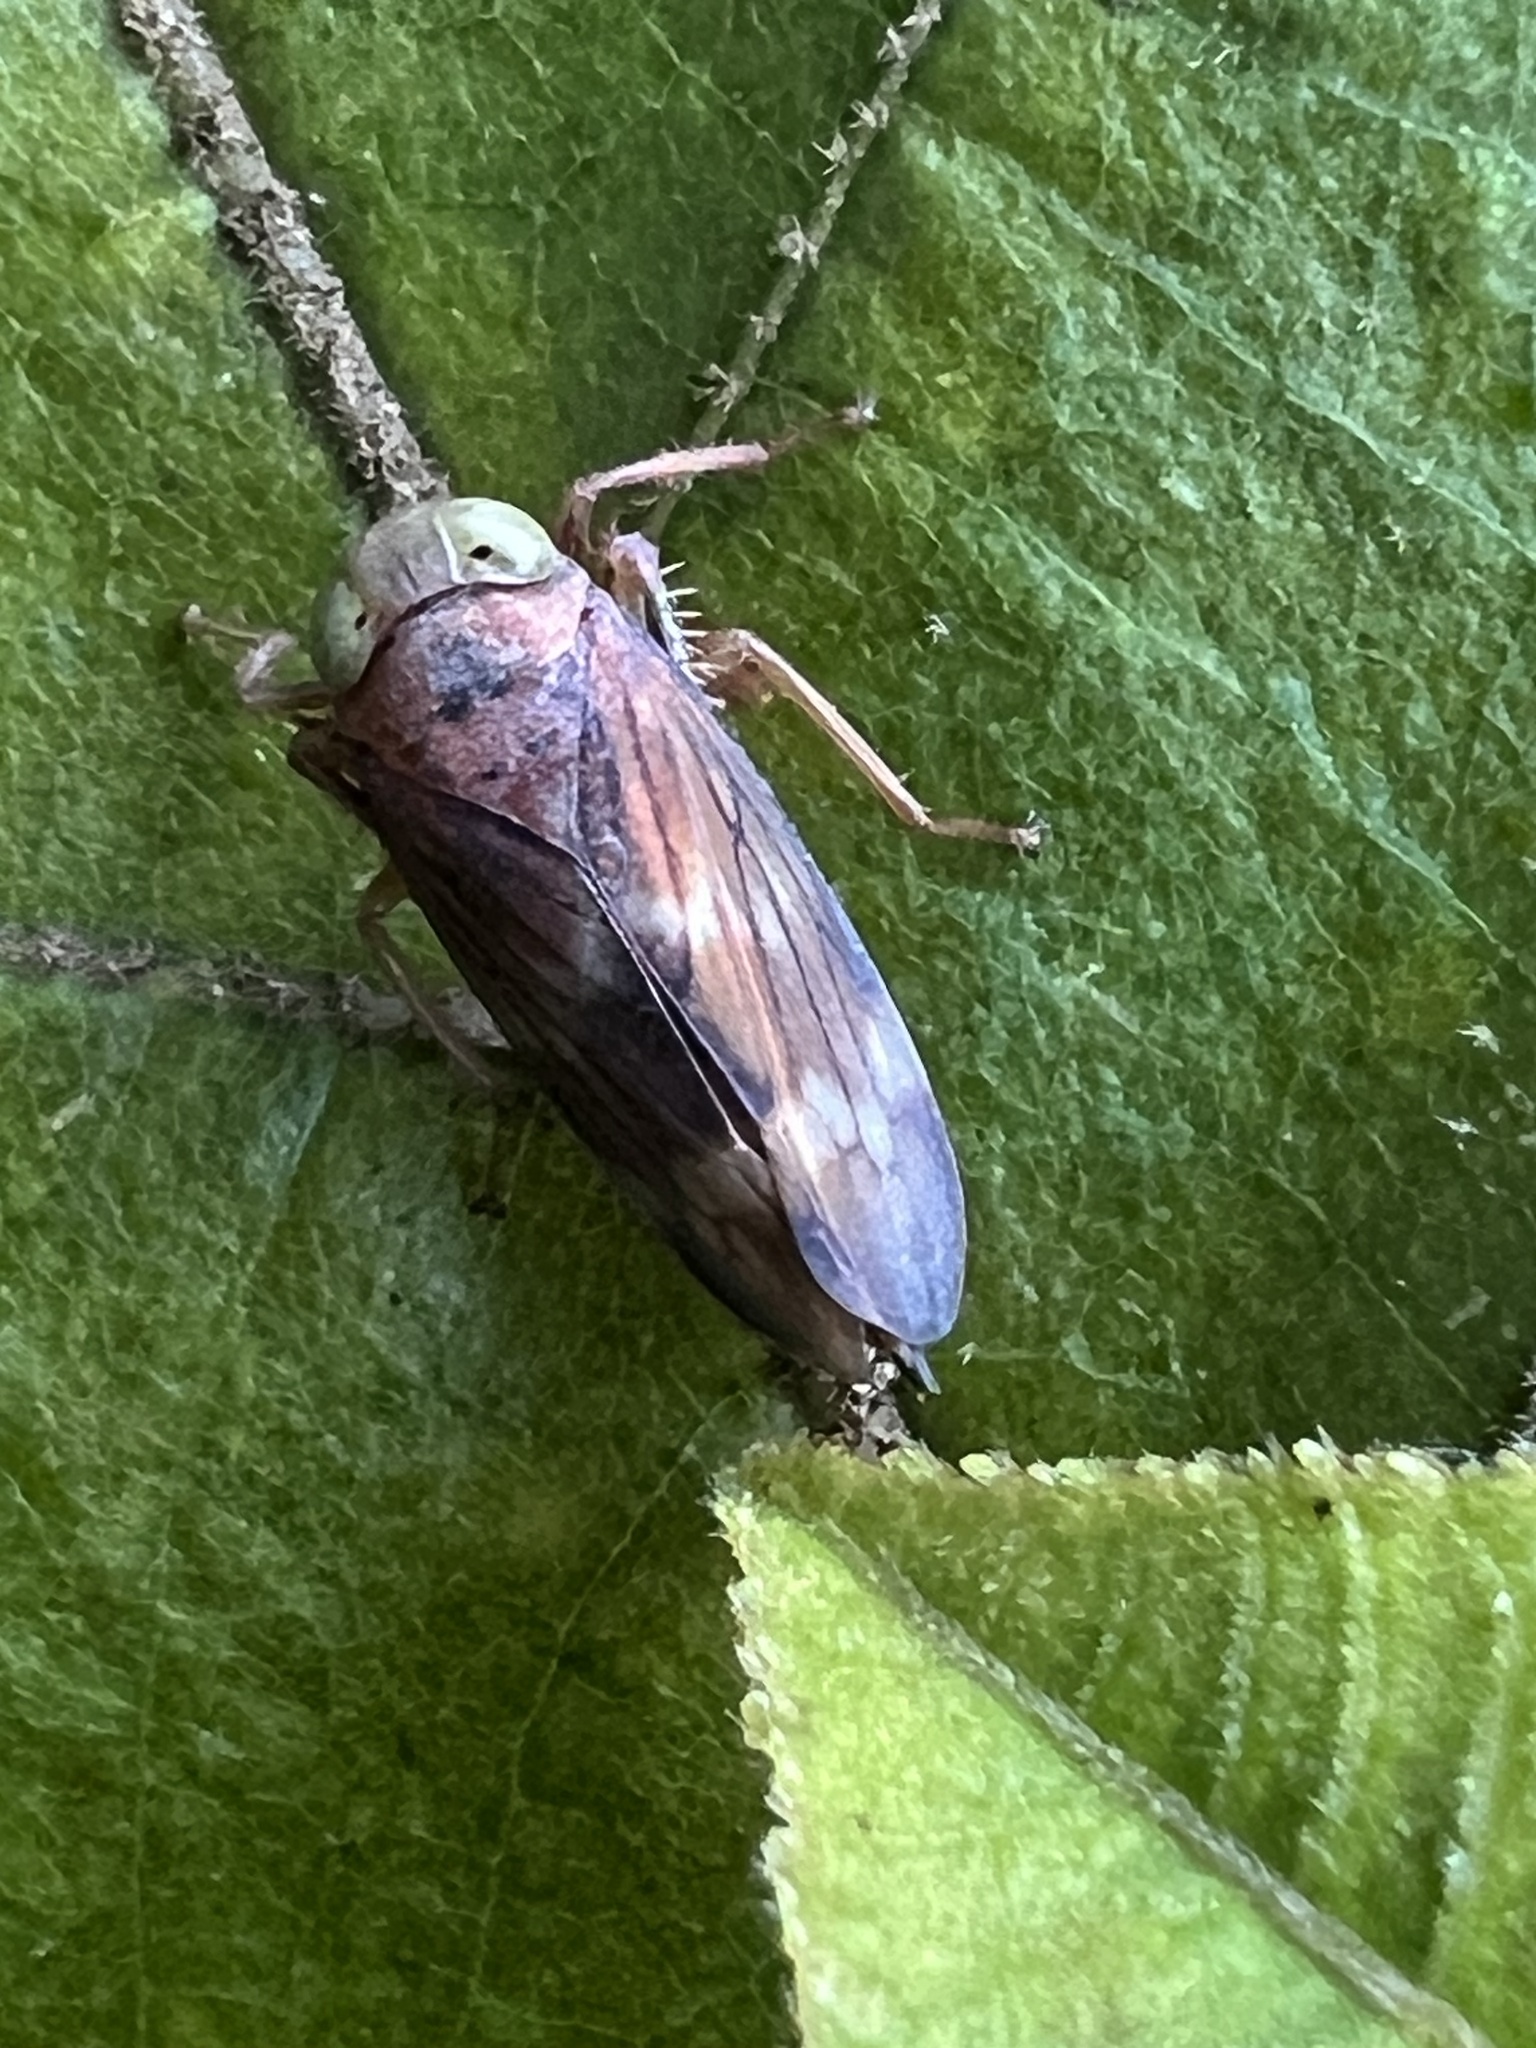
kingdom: Animalia
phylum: Arthropoda
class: Insecta
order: Hemiptera
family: Cicadellidae
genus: Jikradia
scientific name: Jikradia olitoria
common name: Coppery leafhopper
